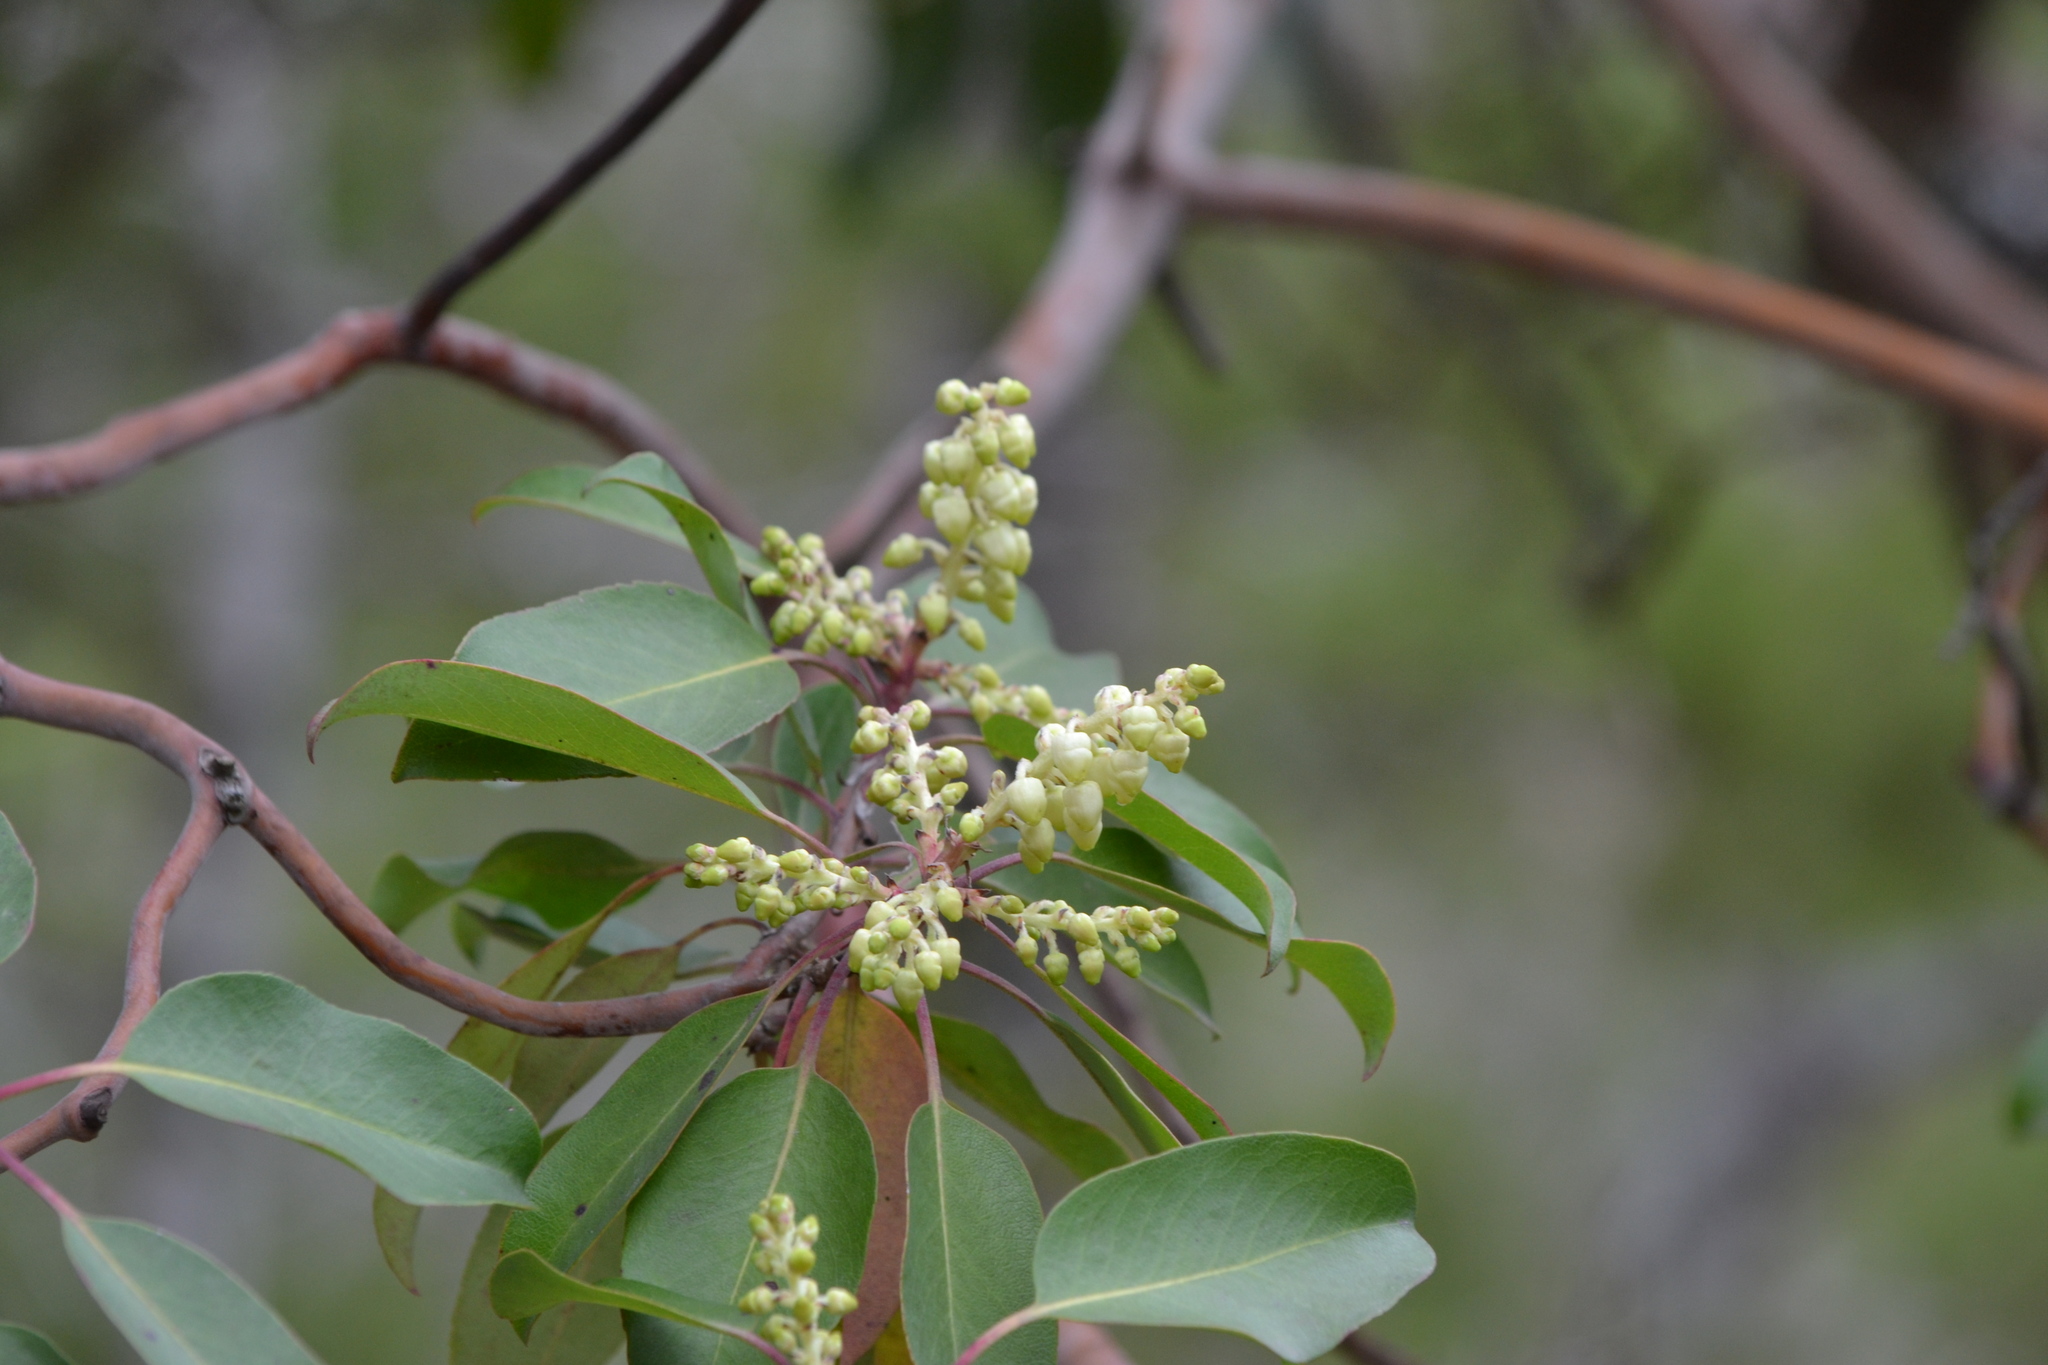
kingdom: Plantae
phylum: Tracheophyta
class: Magnoliopsida
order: Ericales
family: Ericaceae
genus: Arbutus
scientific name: Arbutus xalapensis
